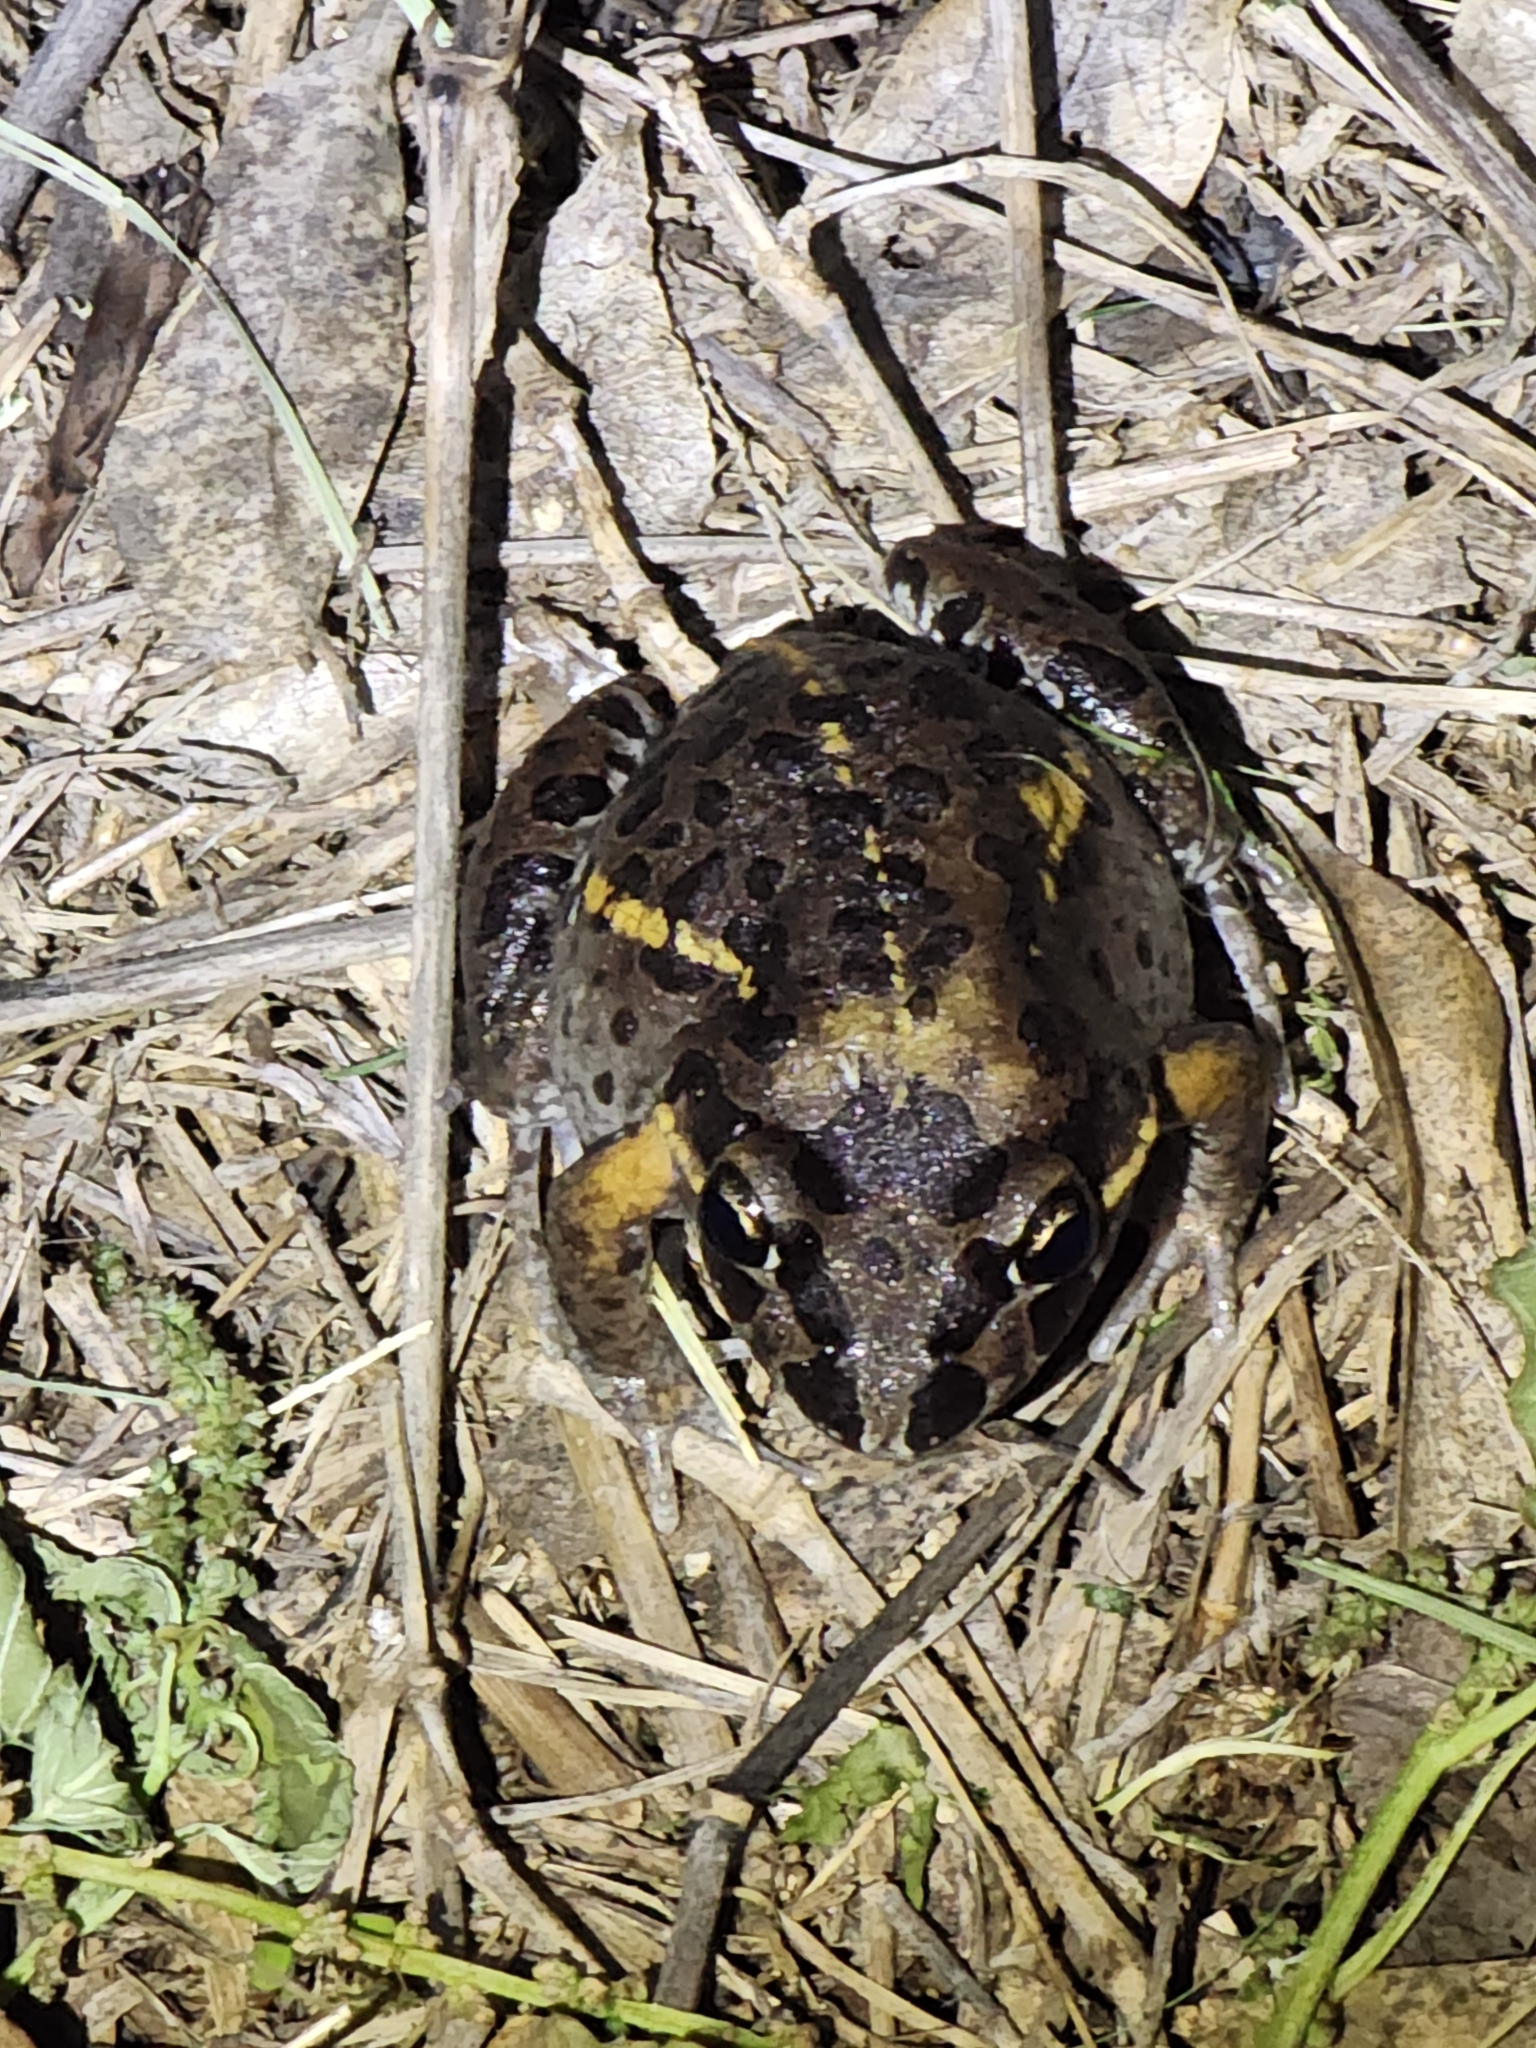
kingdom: Animalia
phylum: Chordata
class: Amphibia
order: Anura
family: Limnodynastidae
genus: Limnodynastes
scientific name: Limnodynastes salmini
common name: Salmon-striped frog
